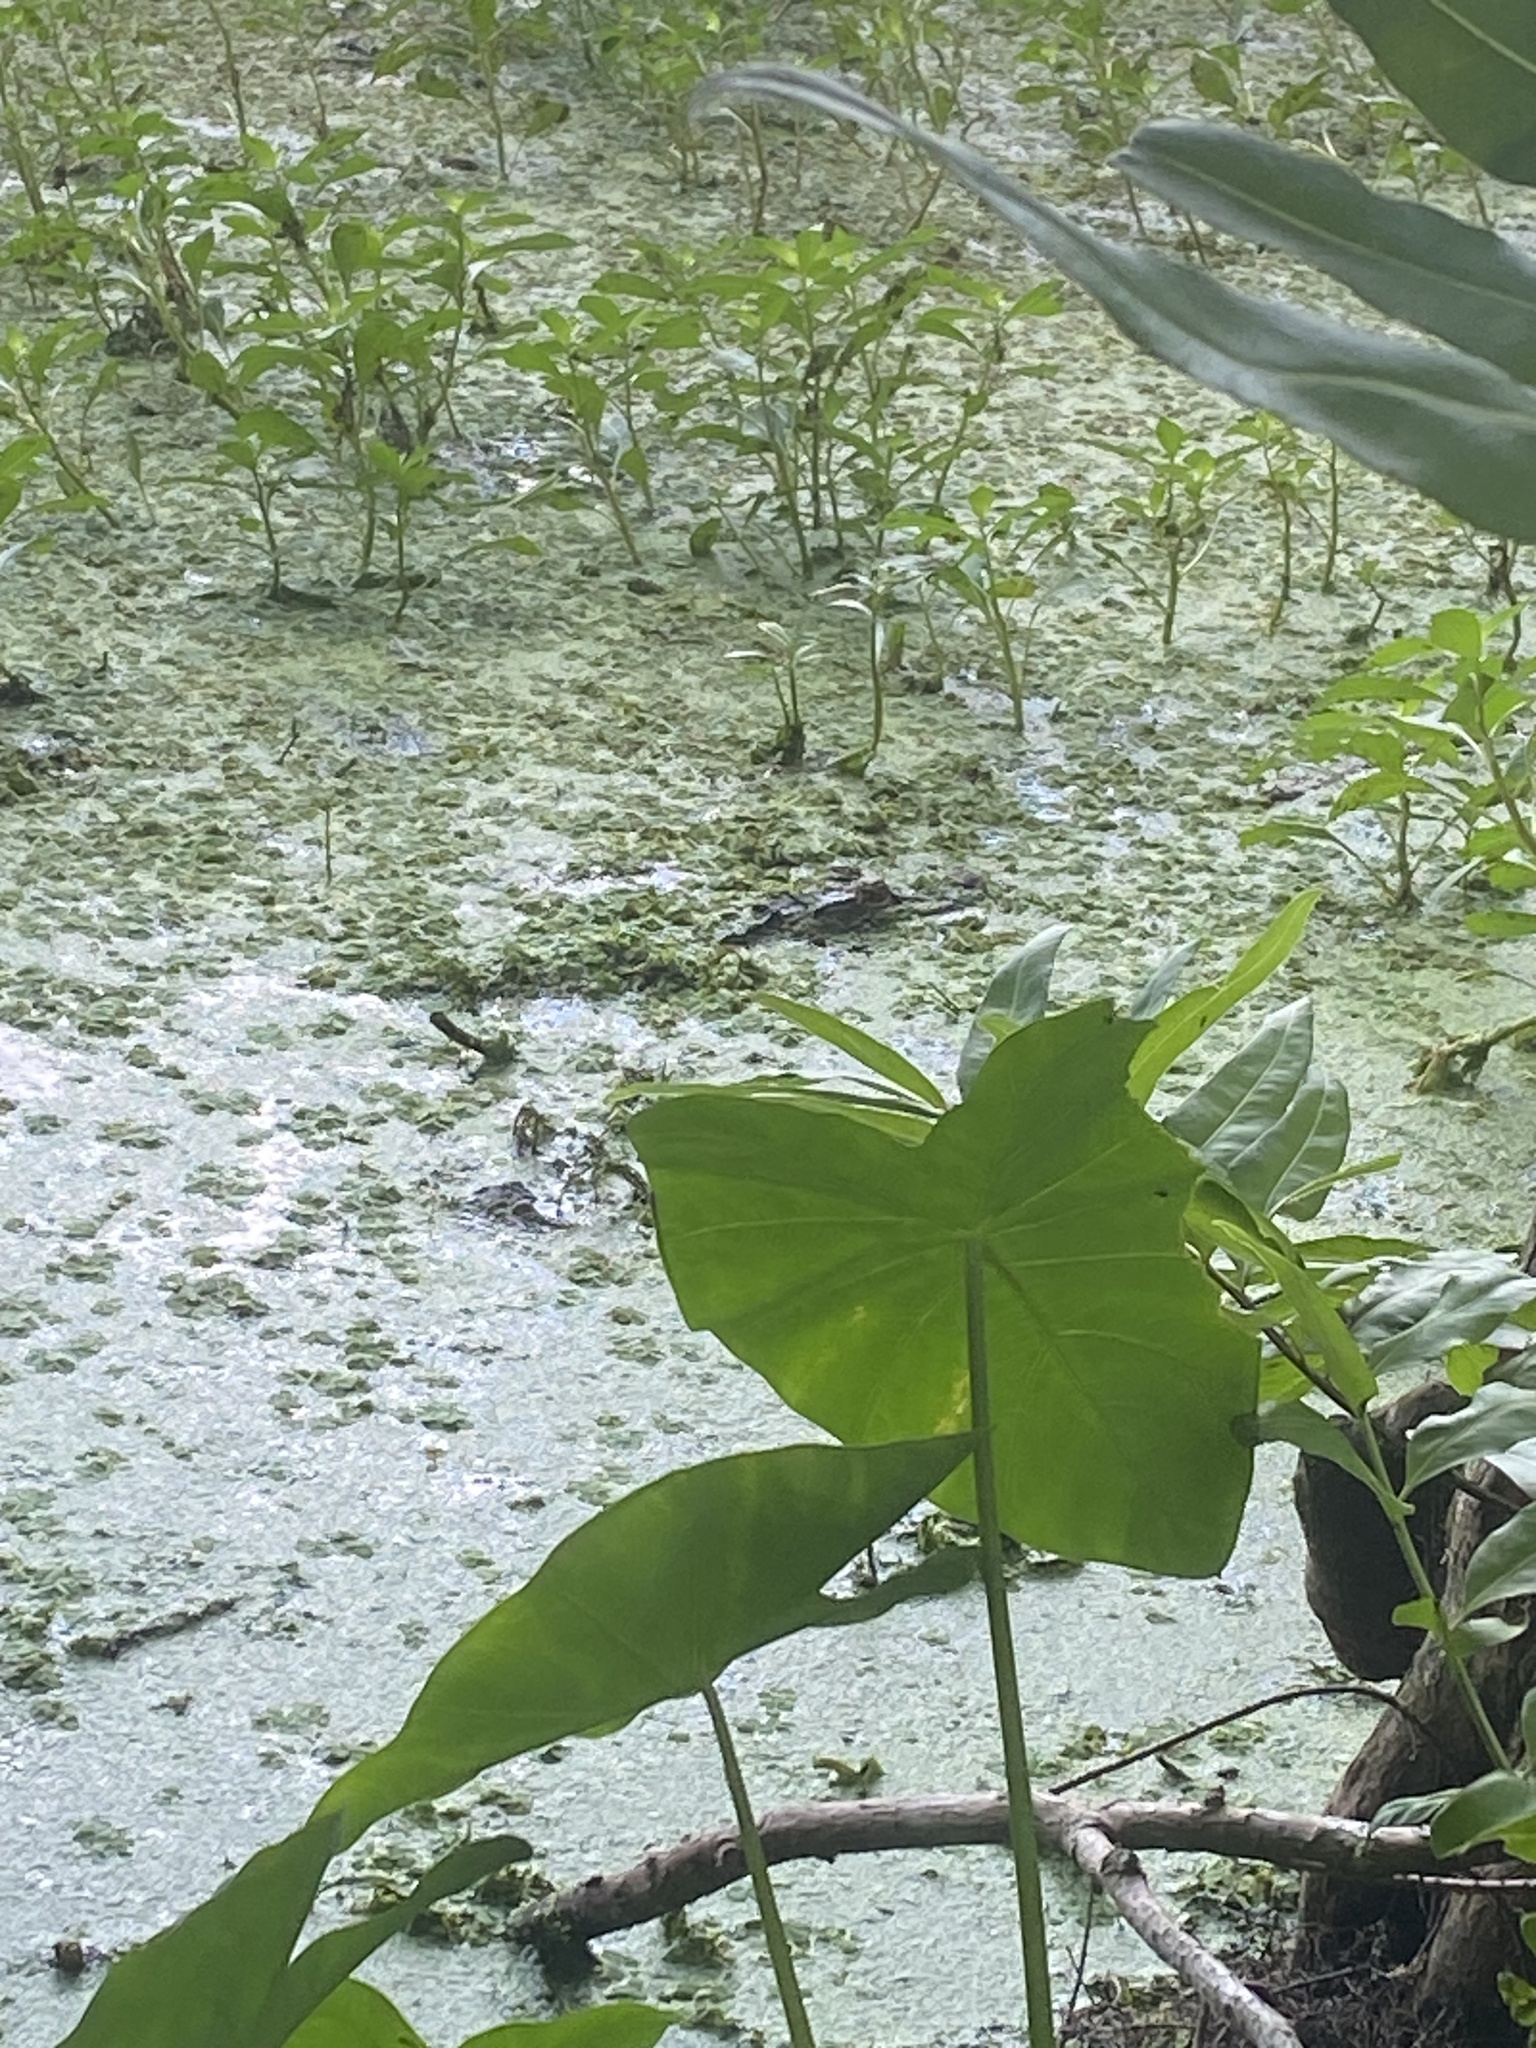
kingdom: Animalia
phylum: Chordata
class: Crocodylia
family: Alligatoridae
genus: Alligator
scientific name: Alligator mississippiensis
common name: American alligator
